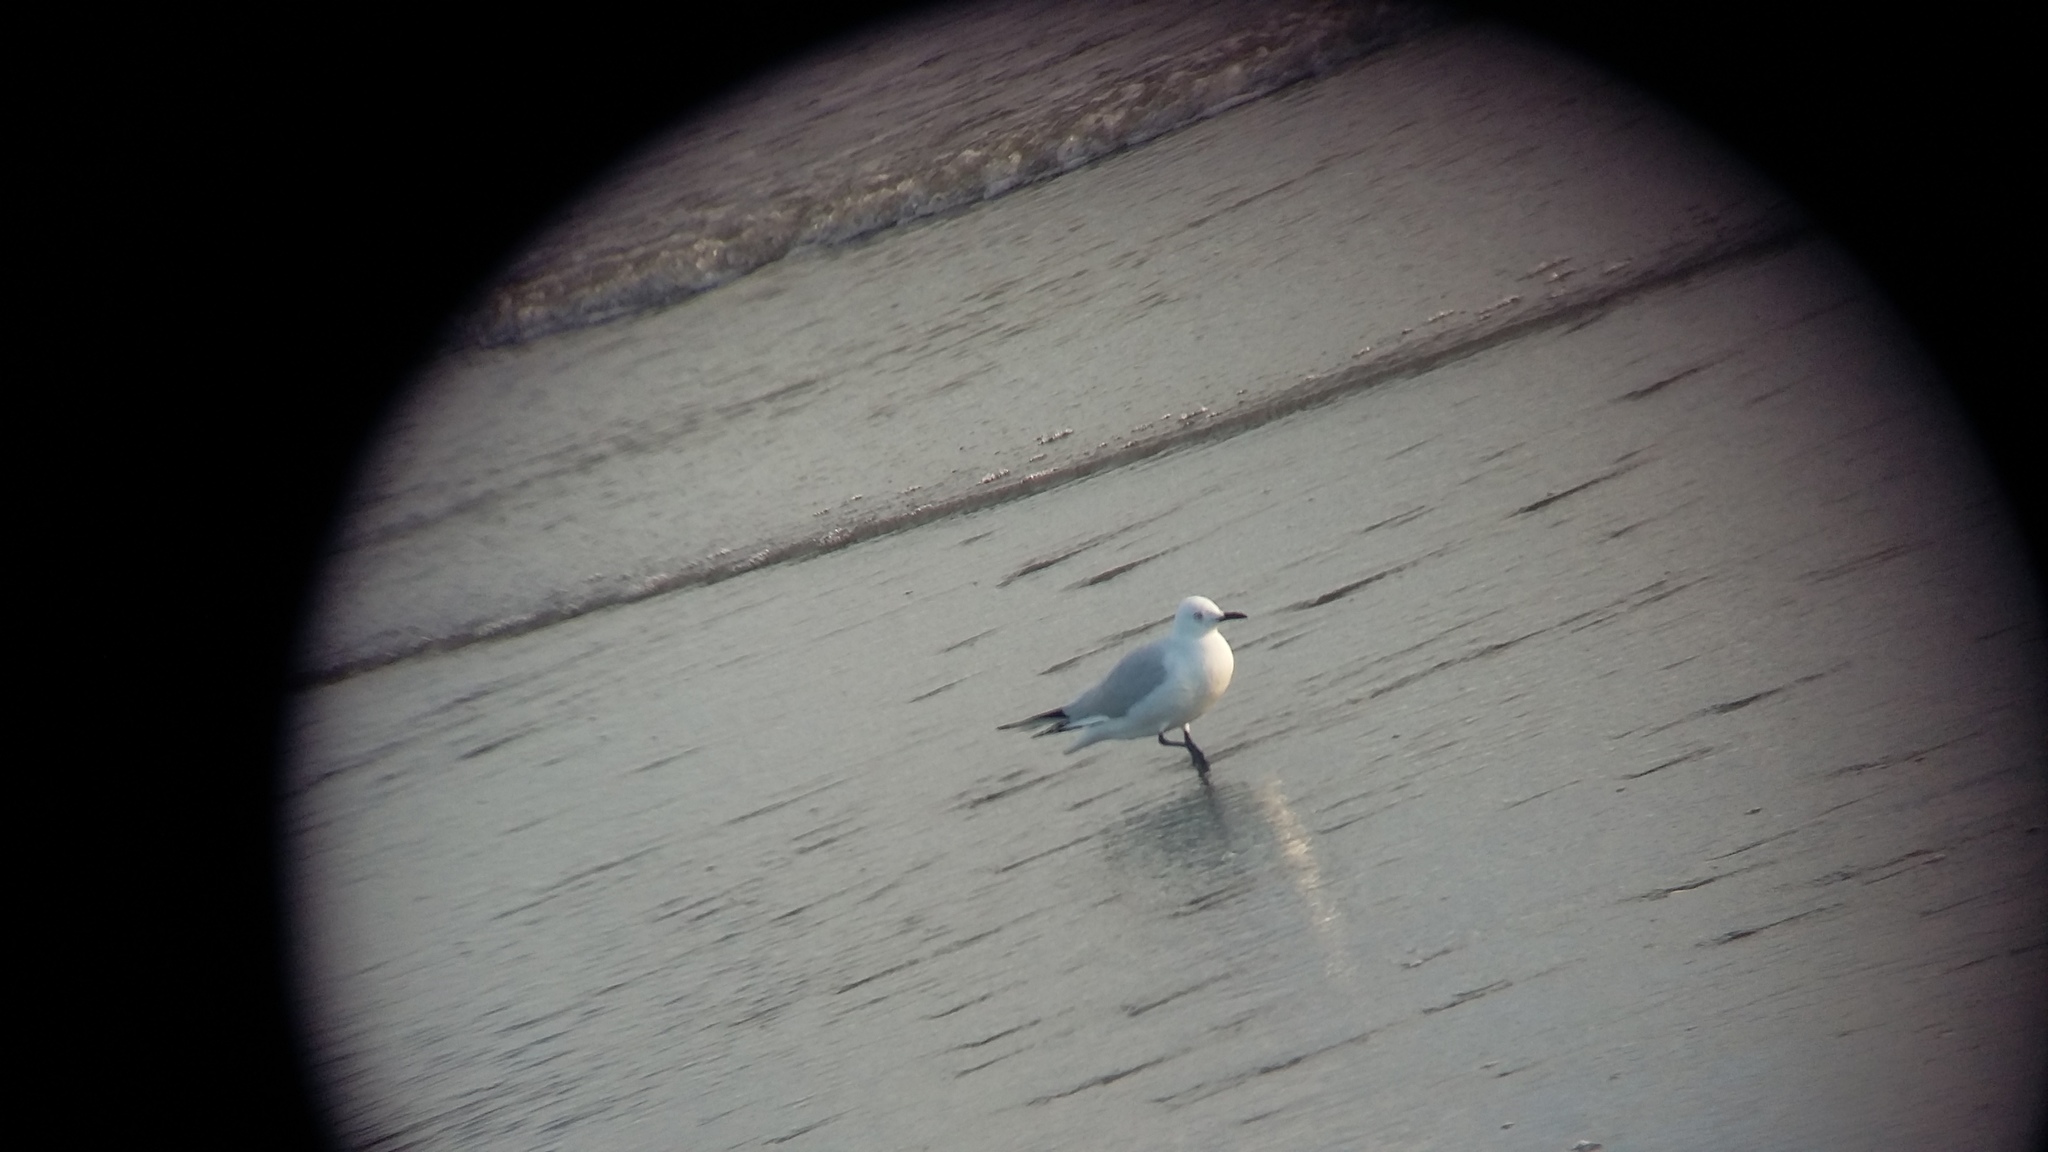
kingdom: Animalia
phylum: Chordata
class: Aves
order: Charadriiformes
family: Laridae
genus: Chroicocephalus
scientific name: Chroicocephalus bulleri
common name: Black-billed gull
